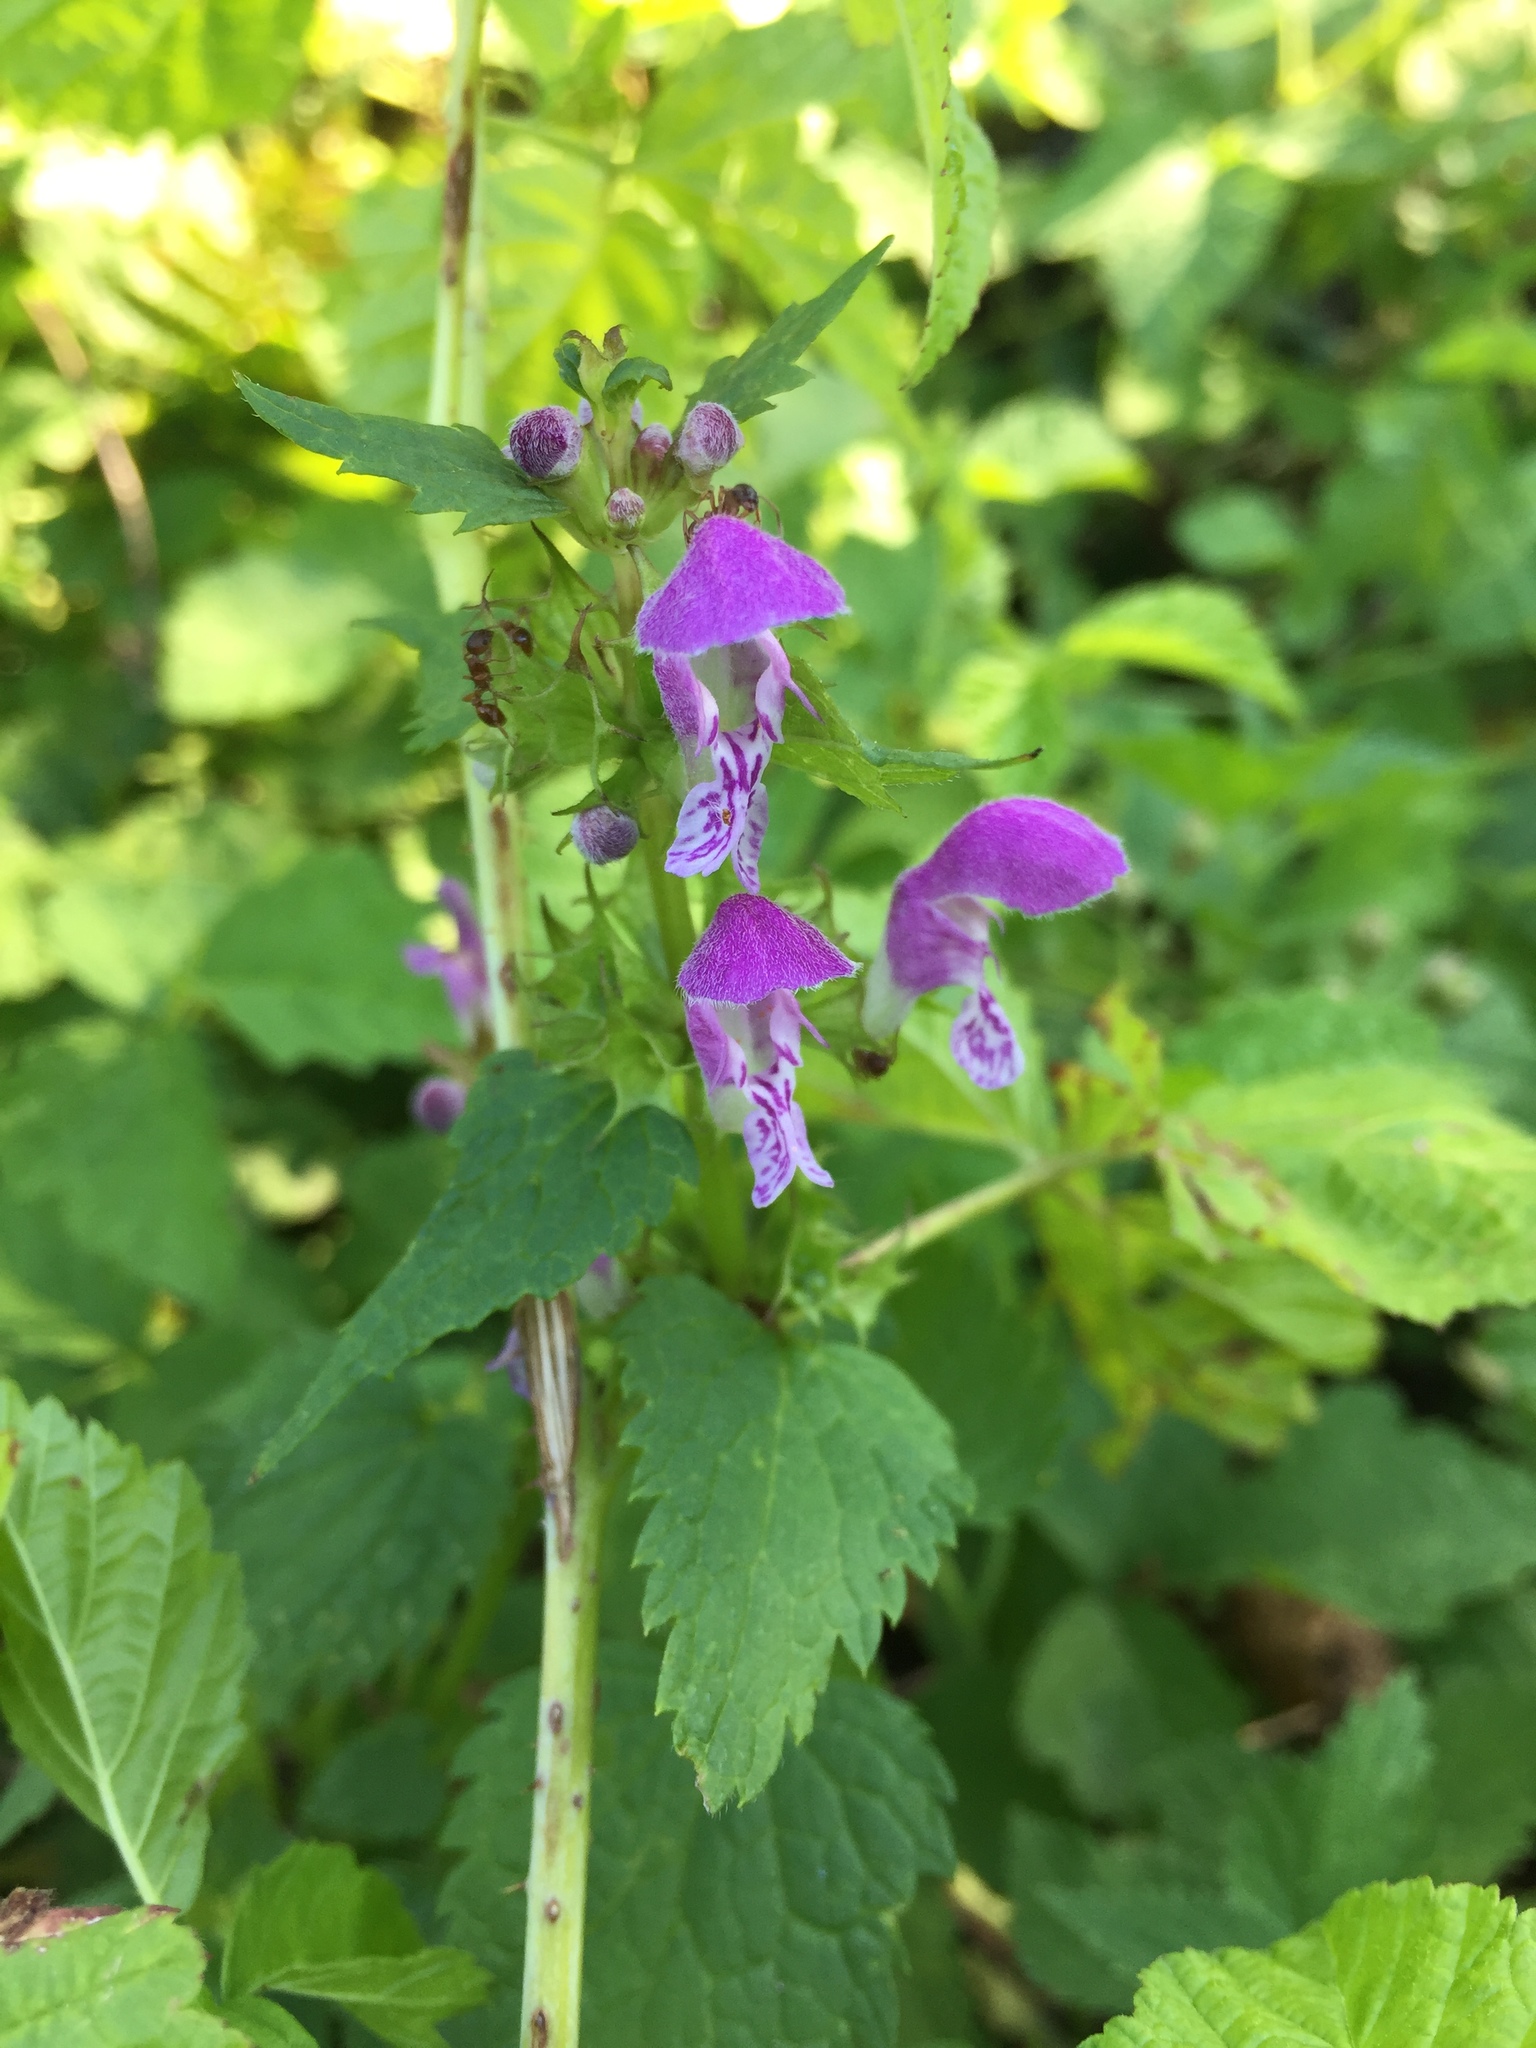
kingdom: Plantae
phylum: Tracheophyta
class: Magnoliopsida
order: Lamiales
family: Lamiaceae
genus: Lamium
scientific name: Lamium maculatum
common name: Spotted dead-nettle
